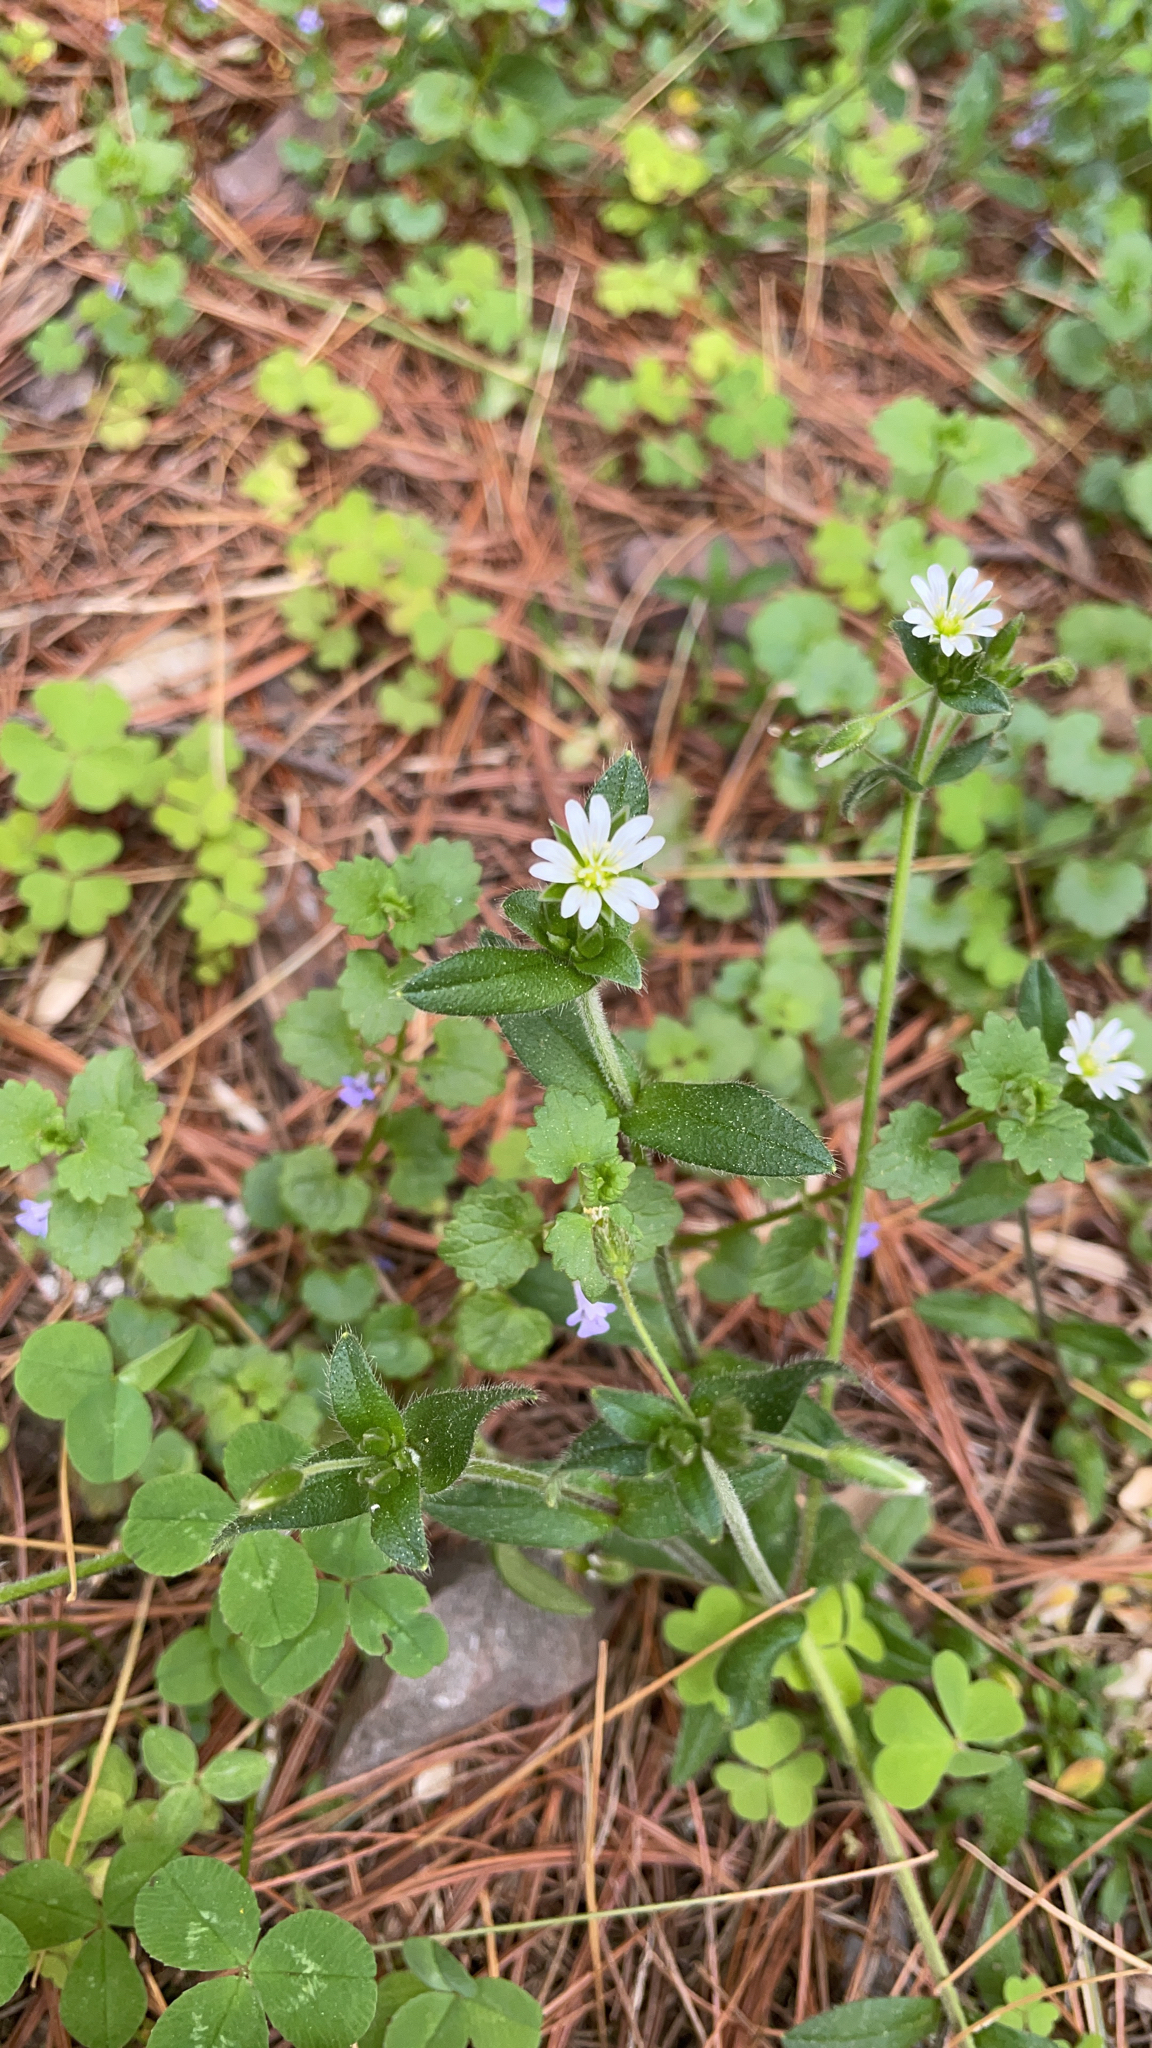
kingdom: Plantae
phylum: Tracheophyta
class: Magnoliopsida
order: Caryophyllales
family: Caryophyllaceae
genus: Cerastium
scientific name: Cerastium fontanum
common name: Common mouse-ear
